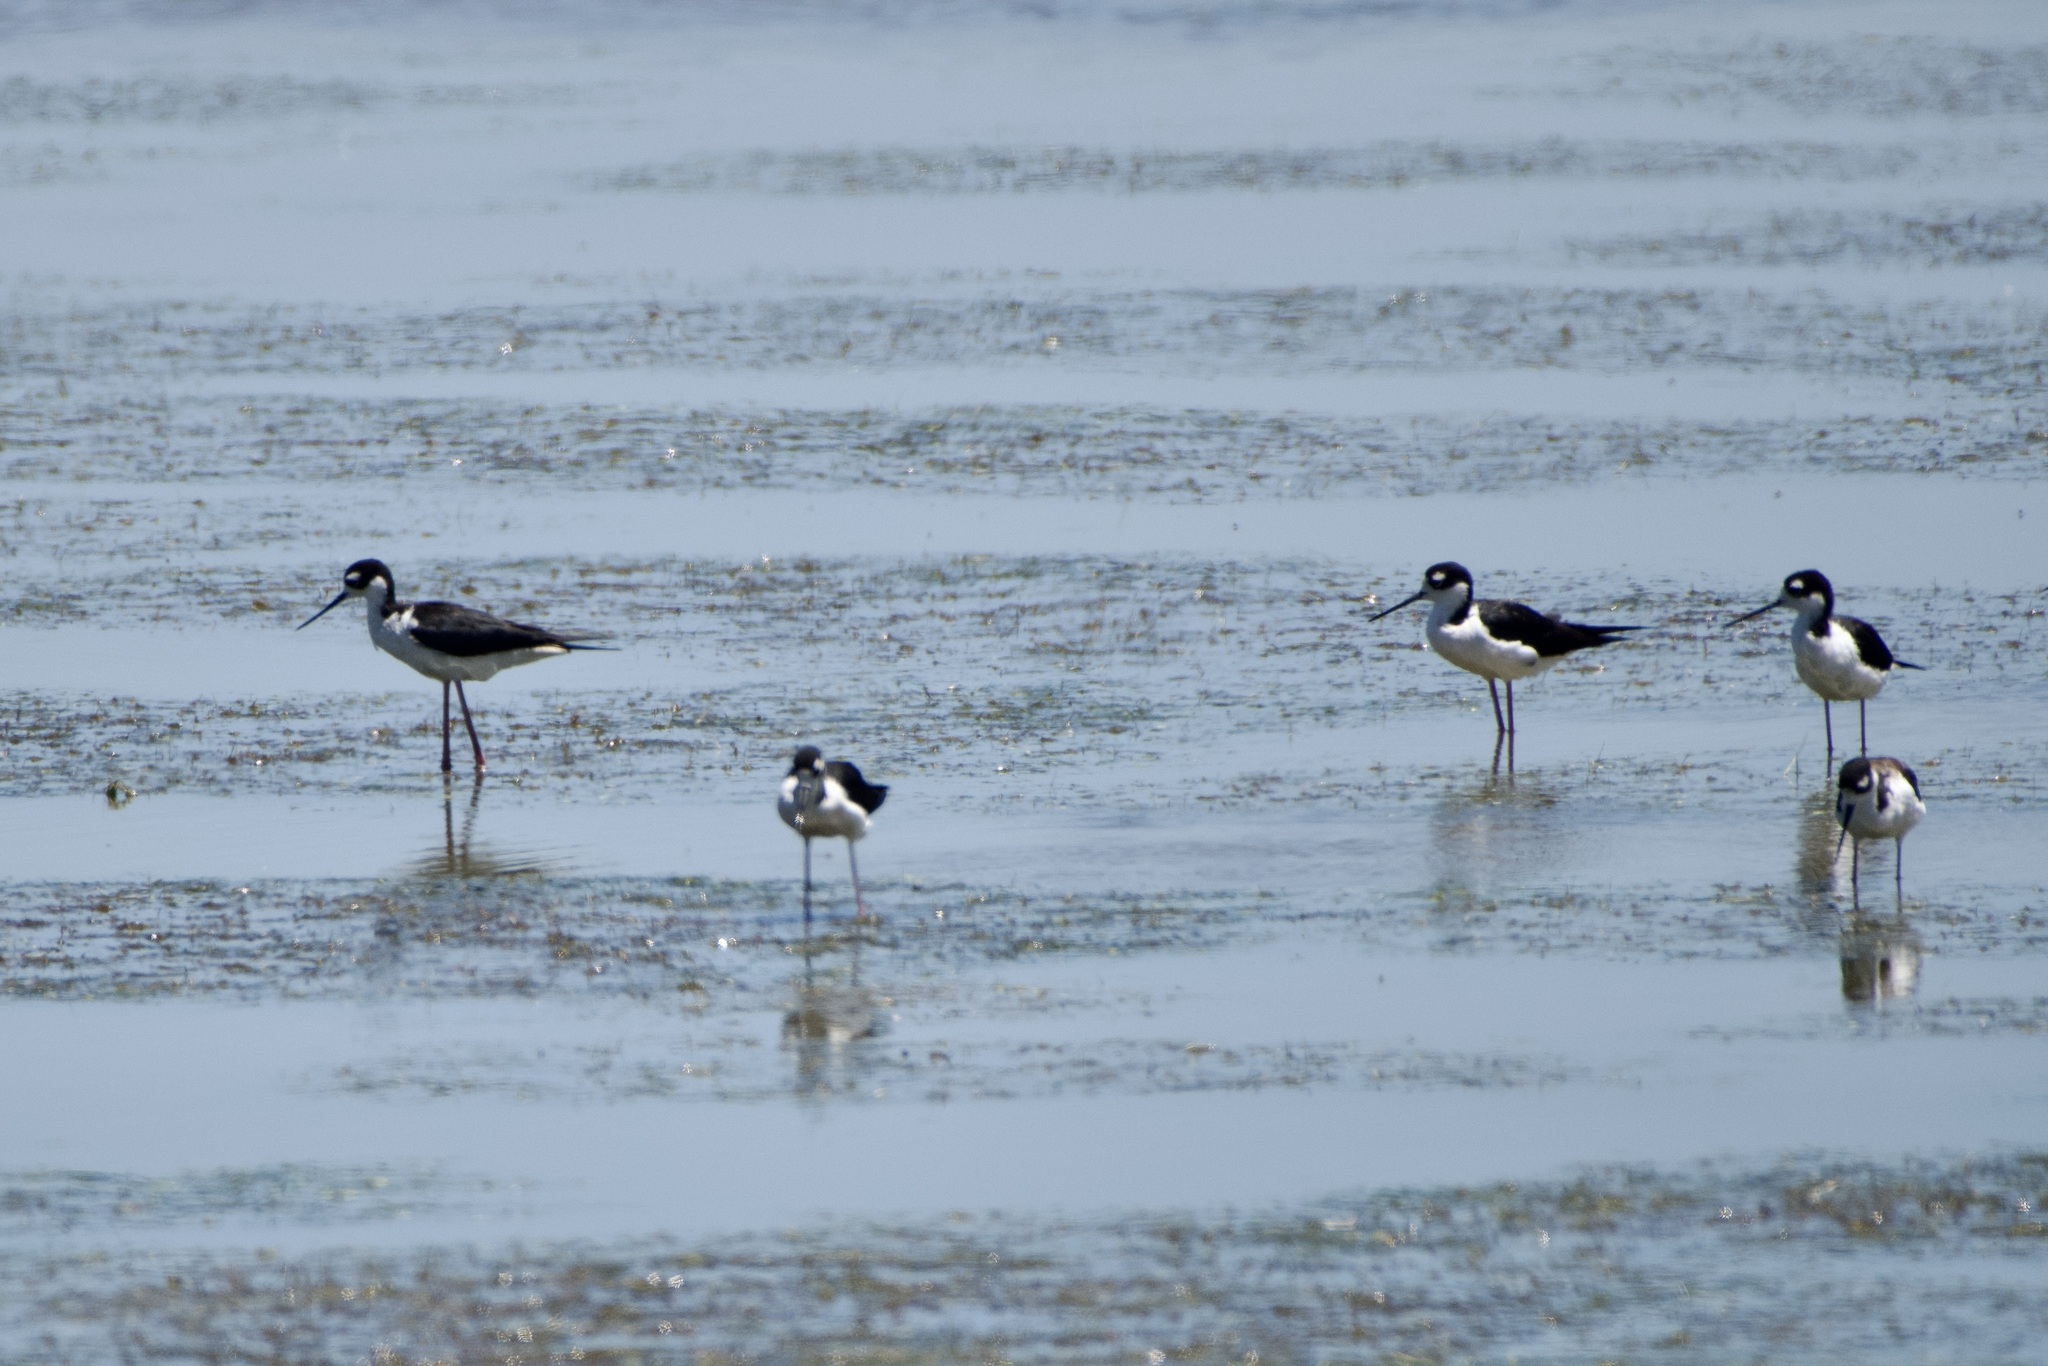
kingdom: Animalia
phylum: Chordata
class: Aves
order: Charadriiformes
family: Recurvirostridae
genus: Himantopus
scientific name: Himantopus mexicanus
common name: Black-necked stilt
